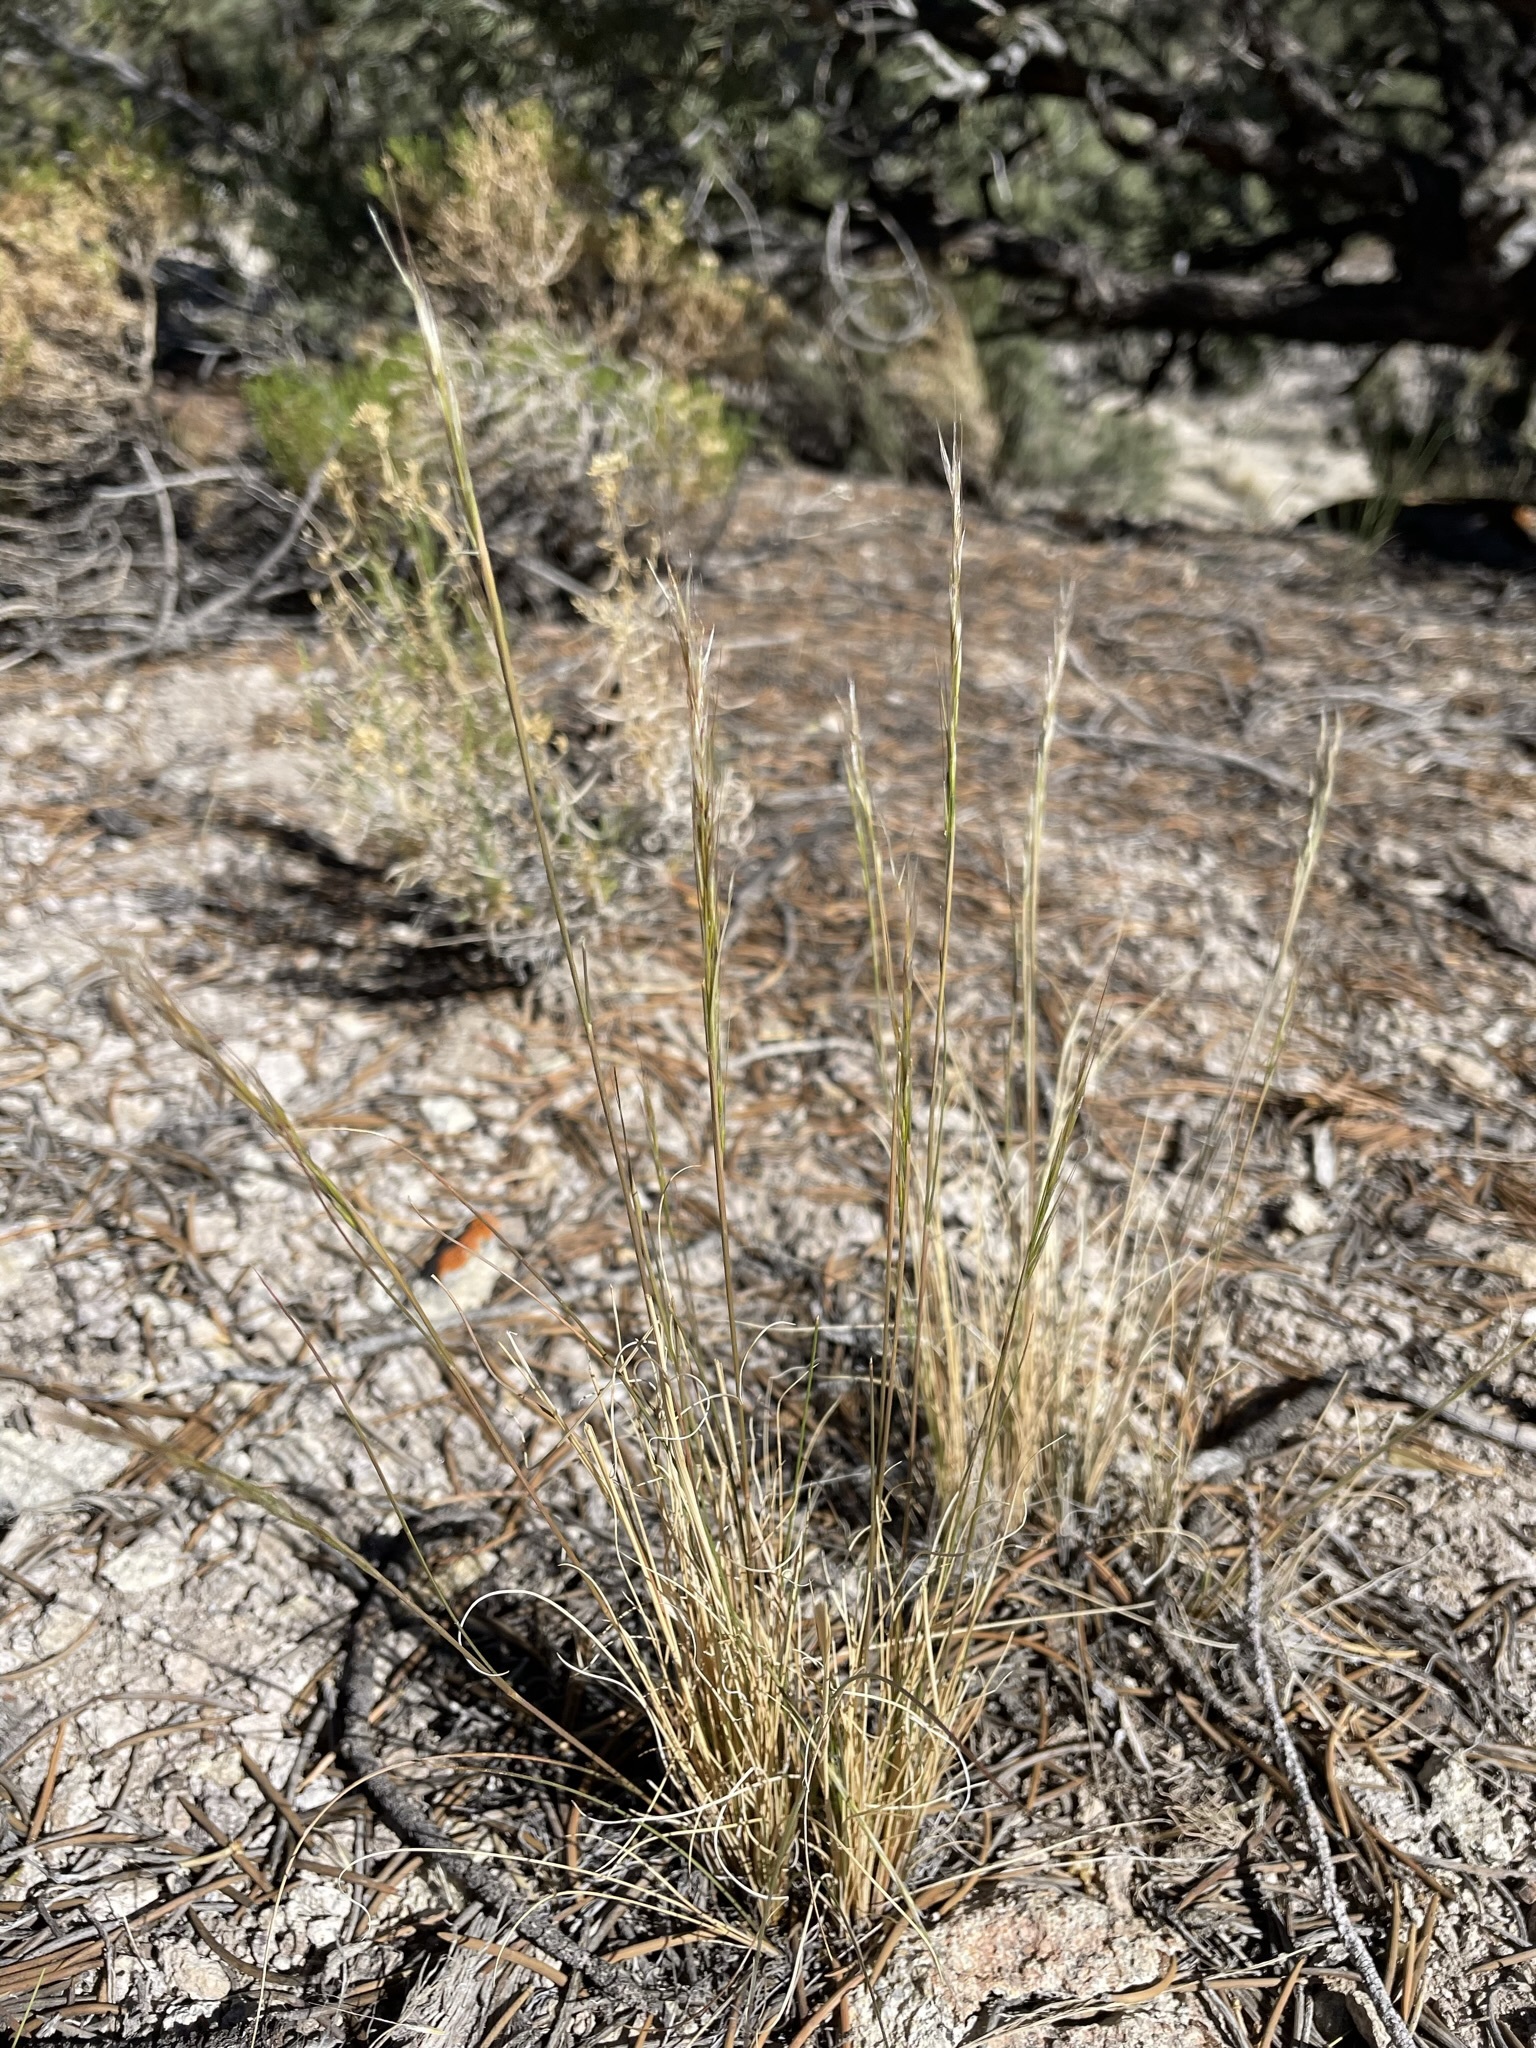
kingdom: Plantae
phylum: Tracheophyta
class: Liliopsida
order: Poales
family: Poaceae
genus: Eriocoma
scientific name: Eriocoma webberi
